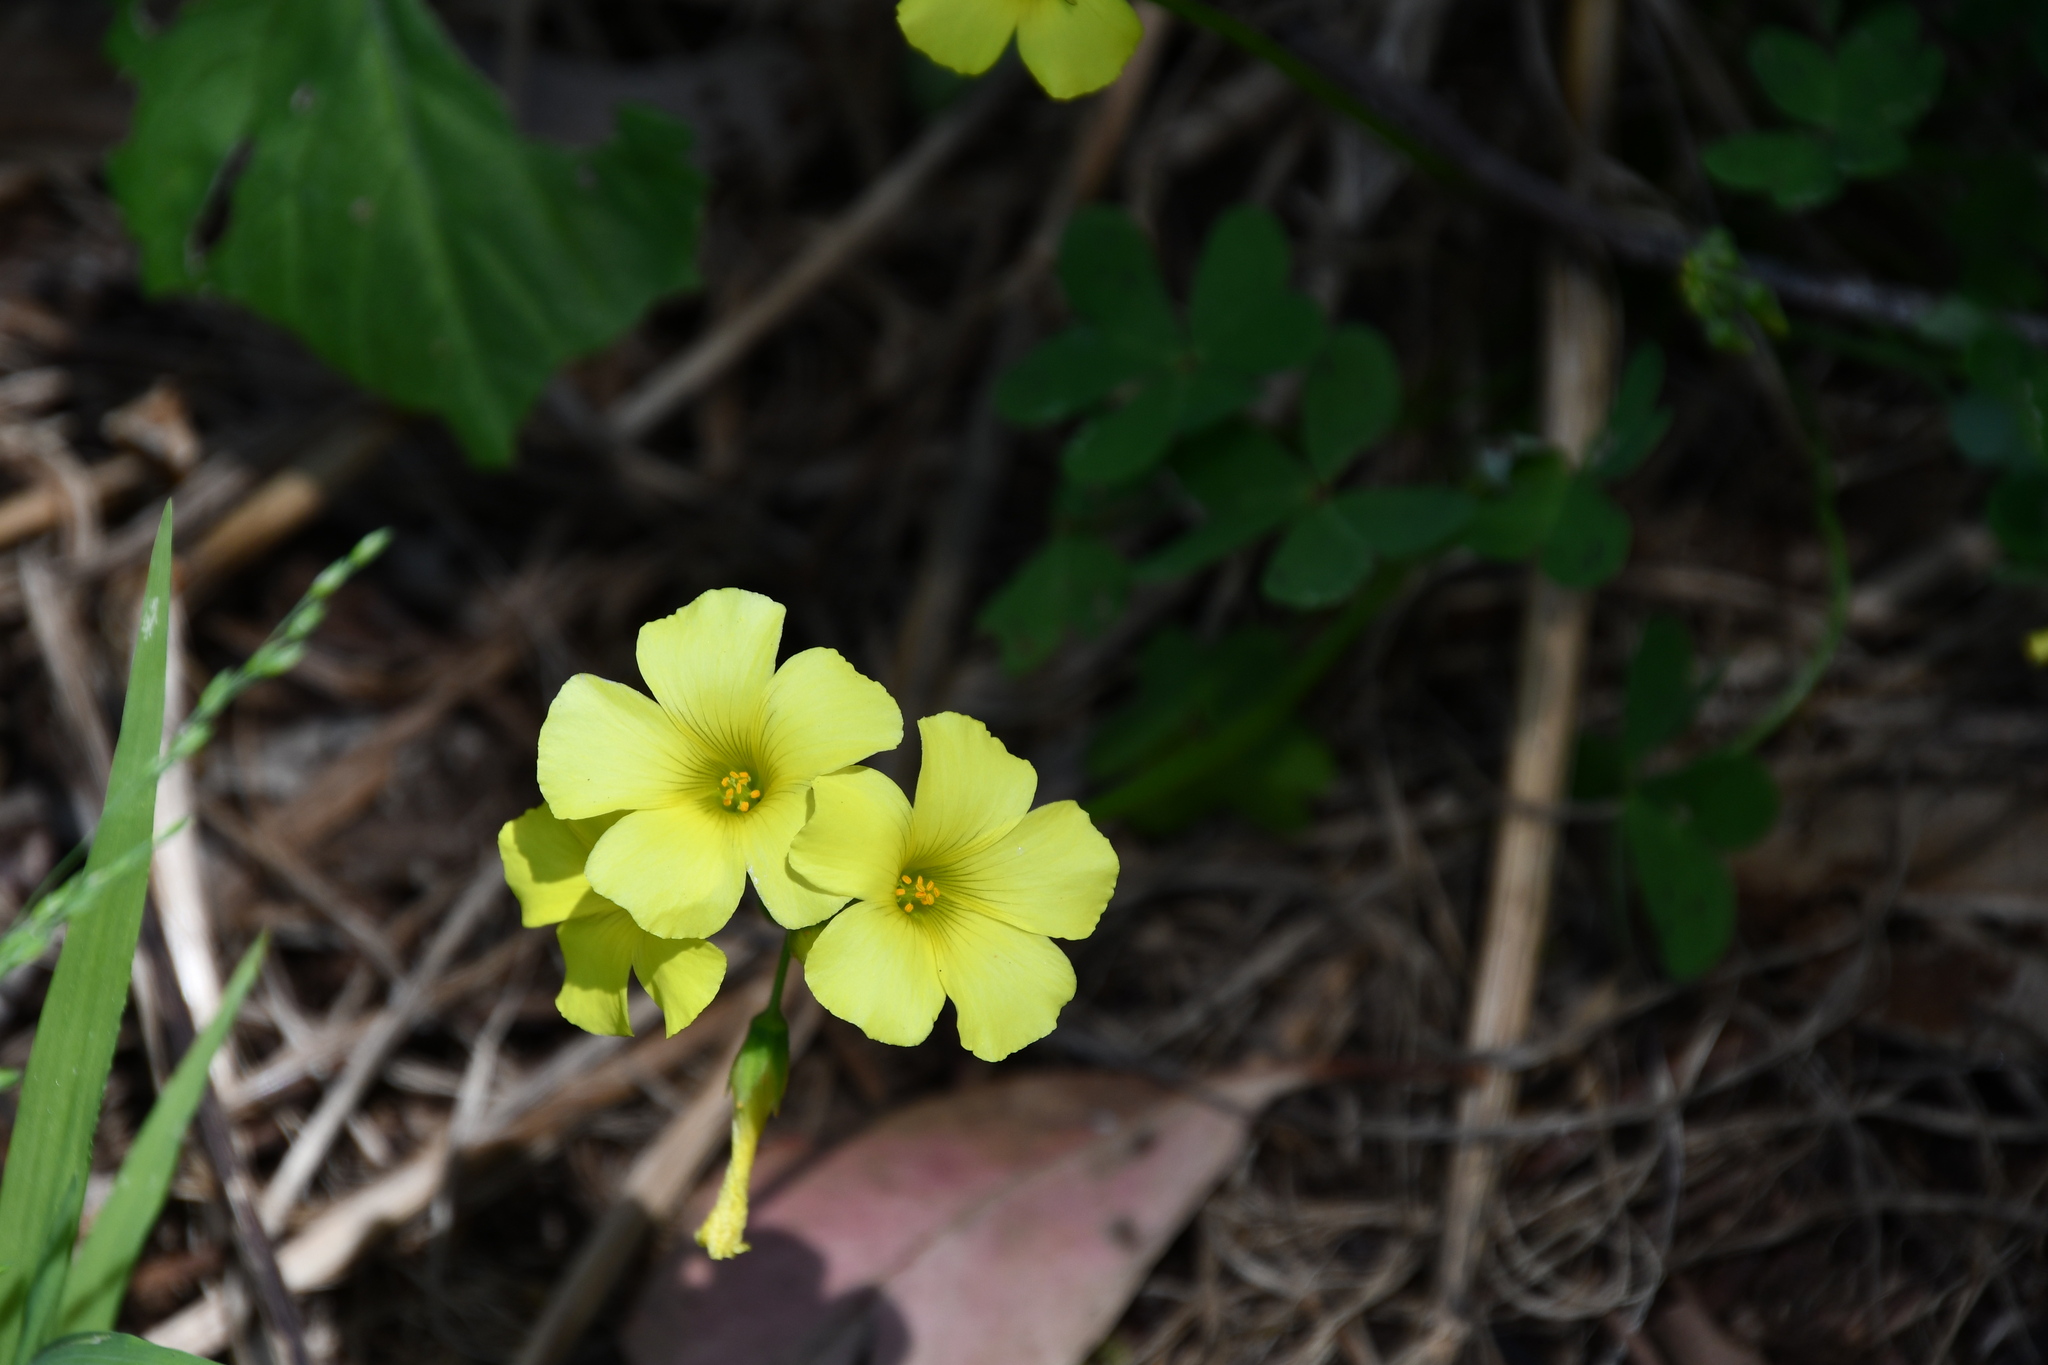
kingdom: Plantae
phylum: Tracheophyta
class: Magnoliopsida
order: Oxalidales
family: Oxalidaceae
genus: Oxalis
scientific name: Oxalis pes-caprae
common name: Bermuda-buttercup
